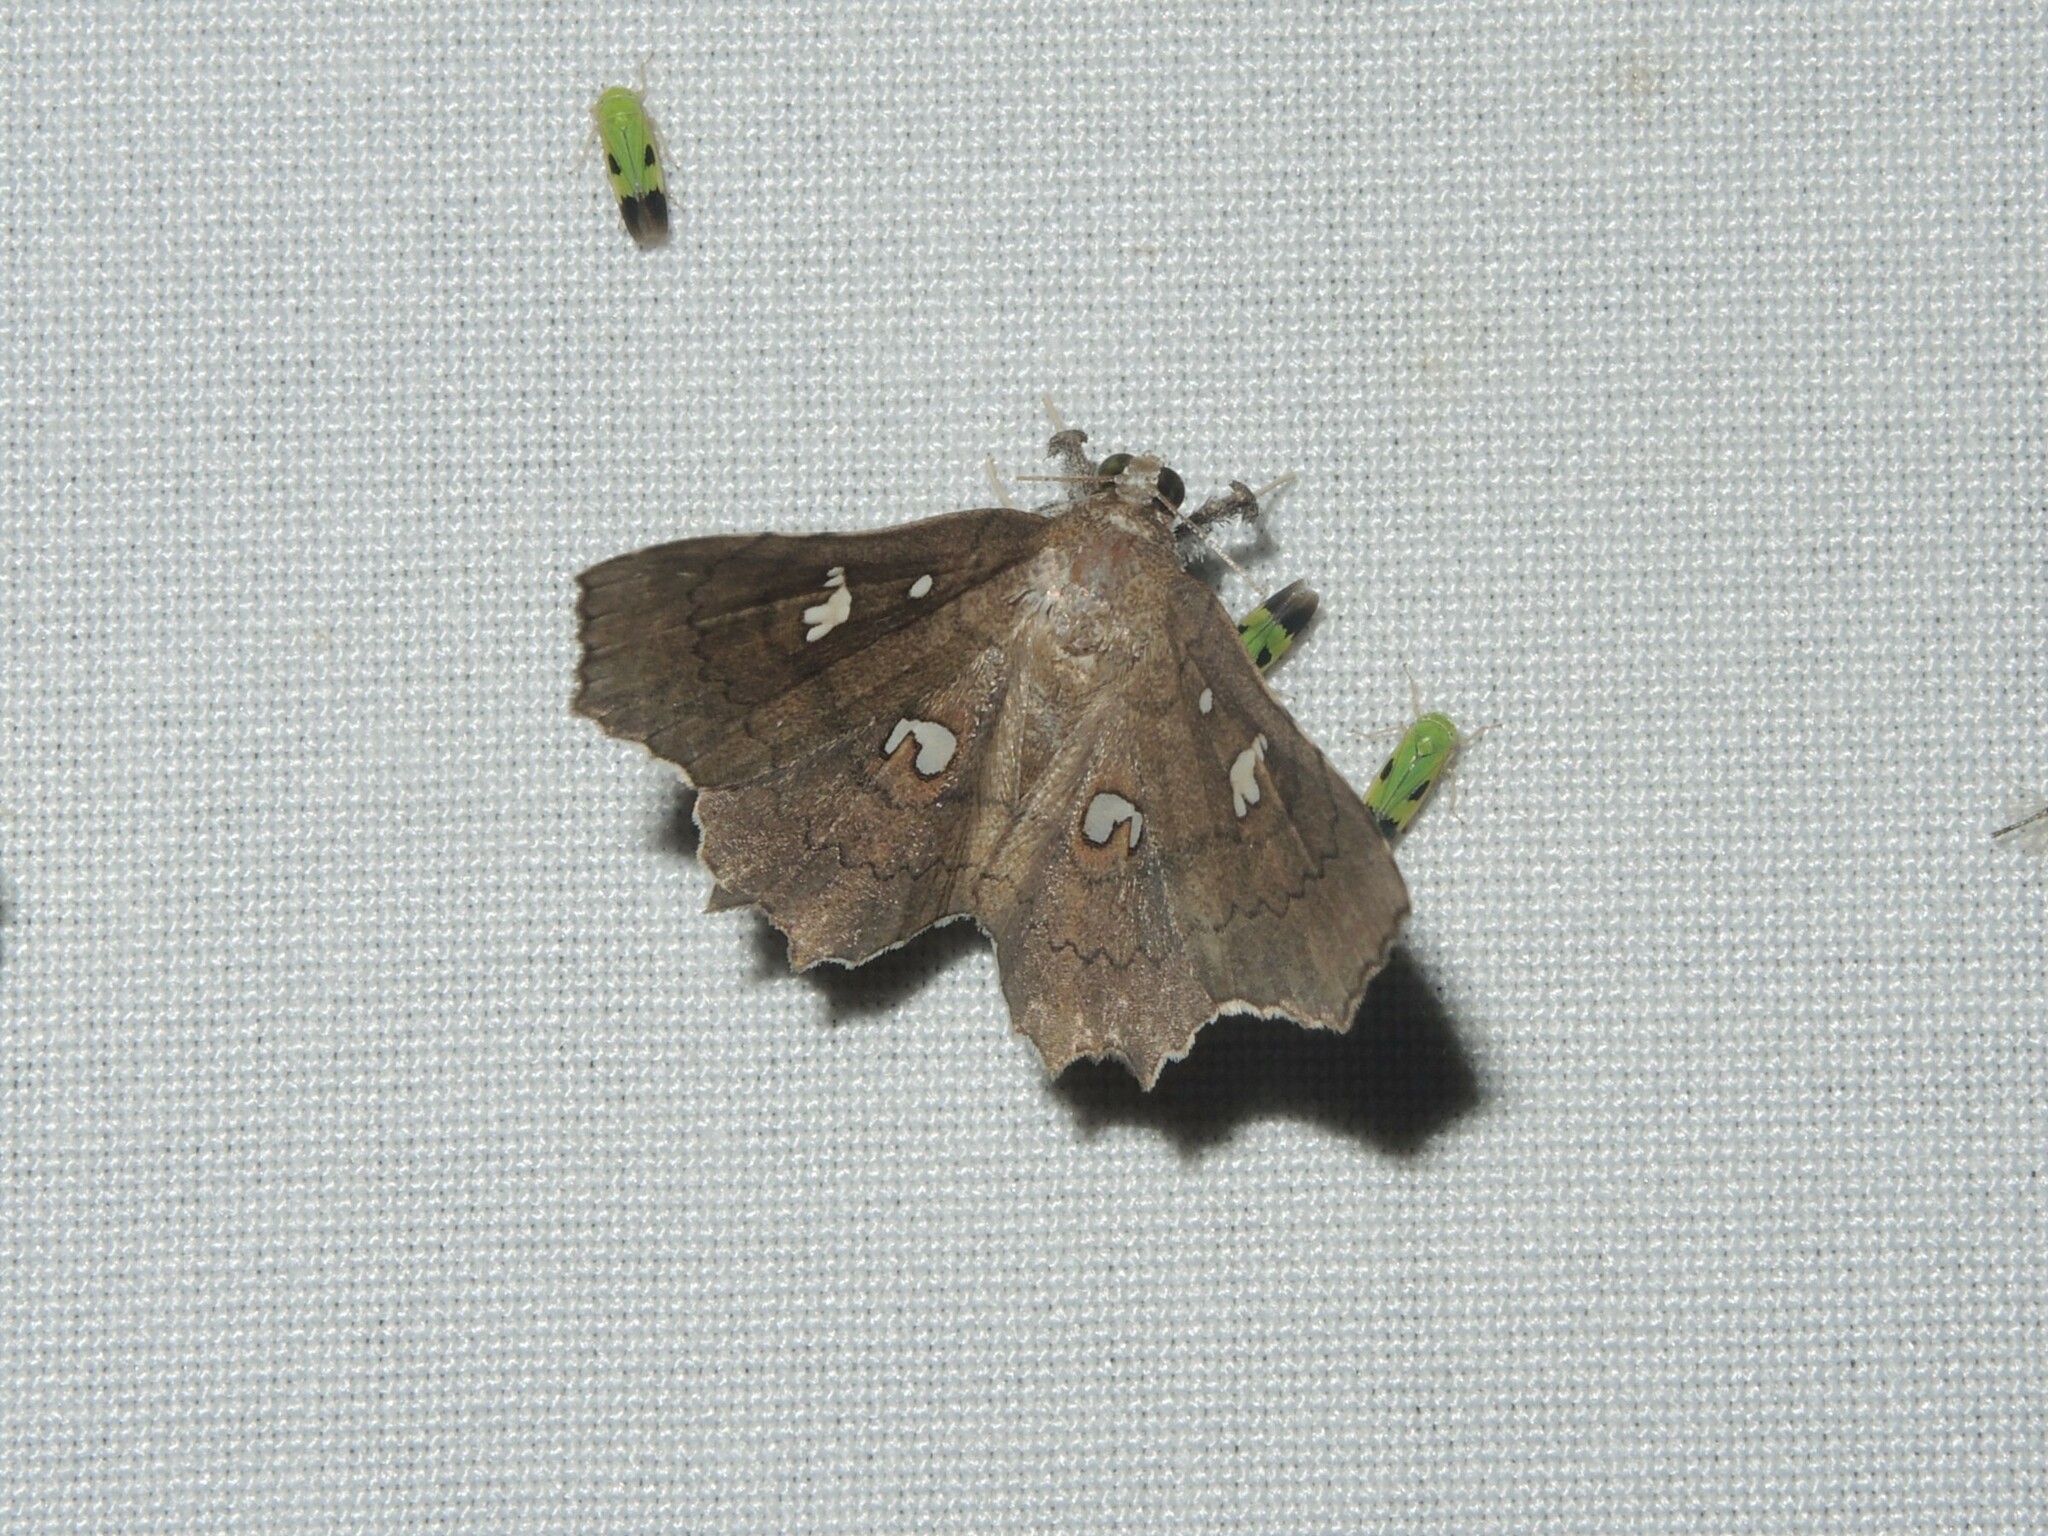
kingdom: Animalia
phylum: Arthropoda
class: Insecta
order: Lepidoptera
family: Erebidae
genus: Egnasia
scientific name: Egnasia ephyrodalis
